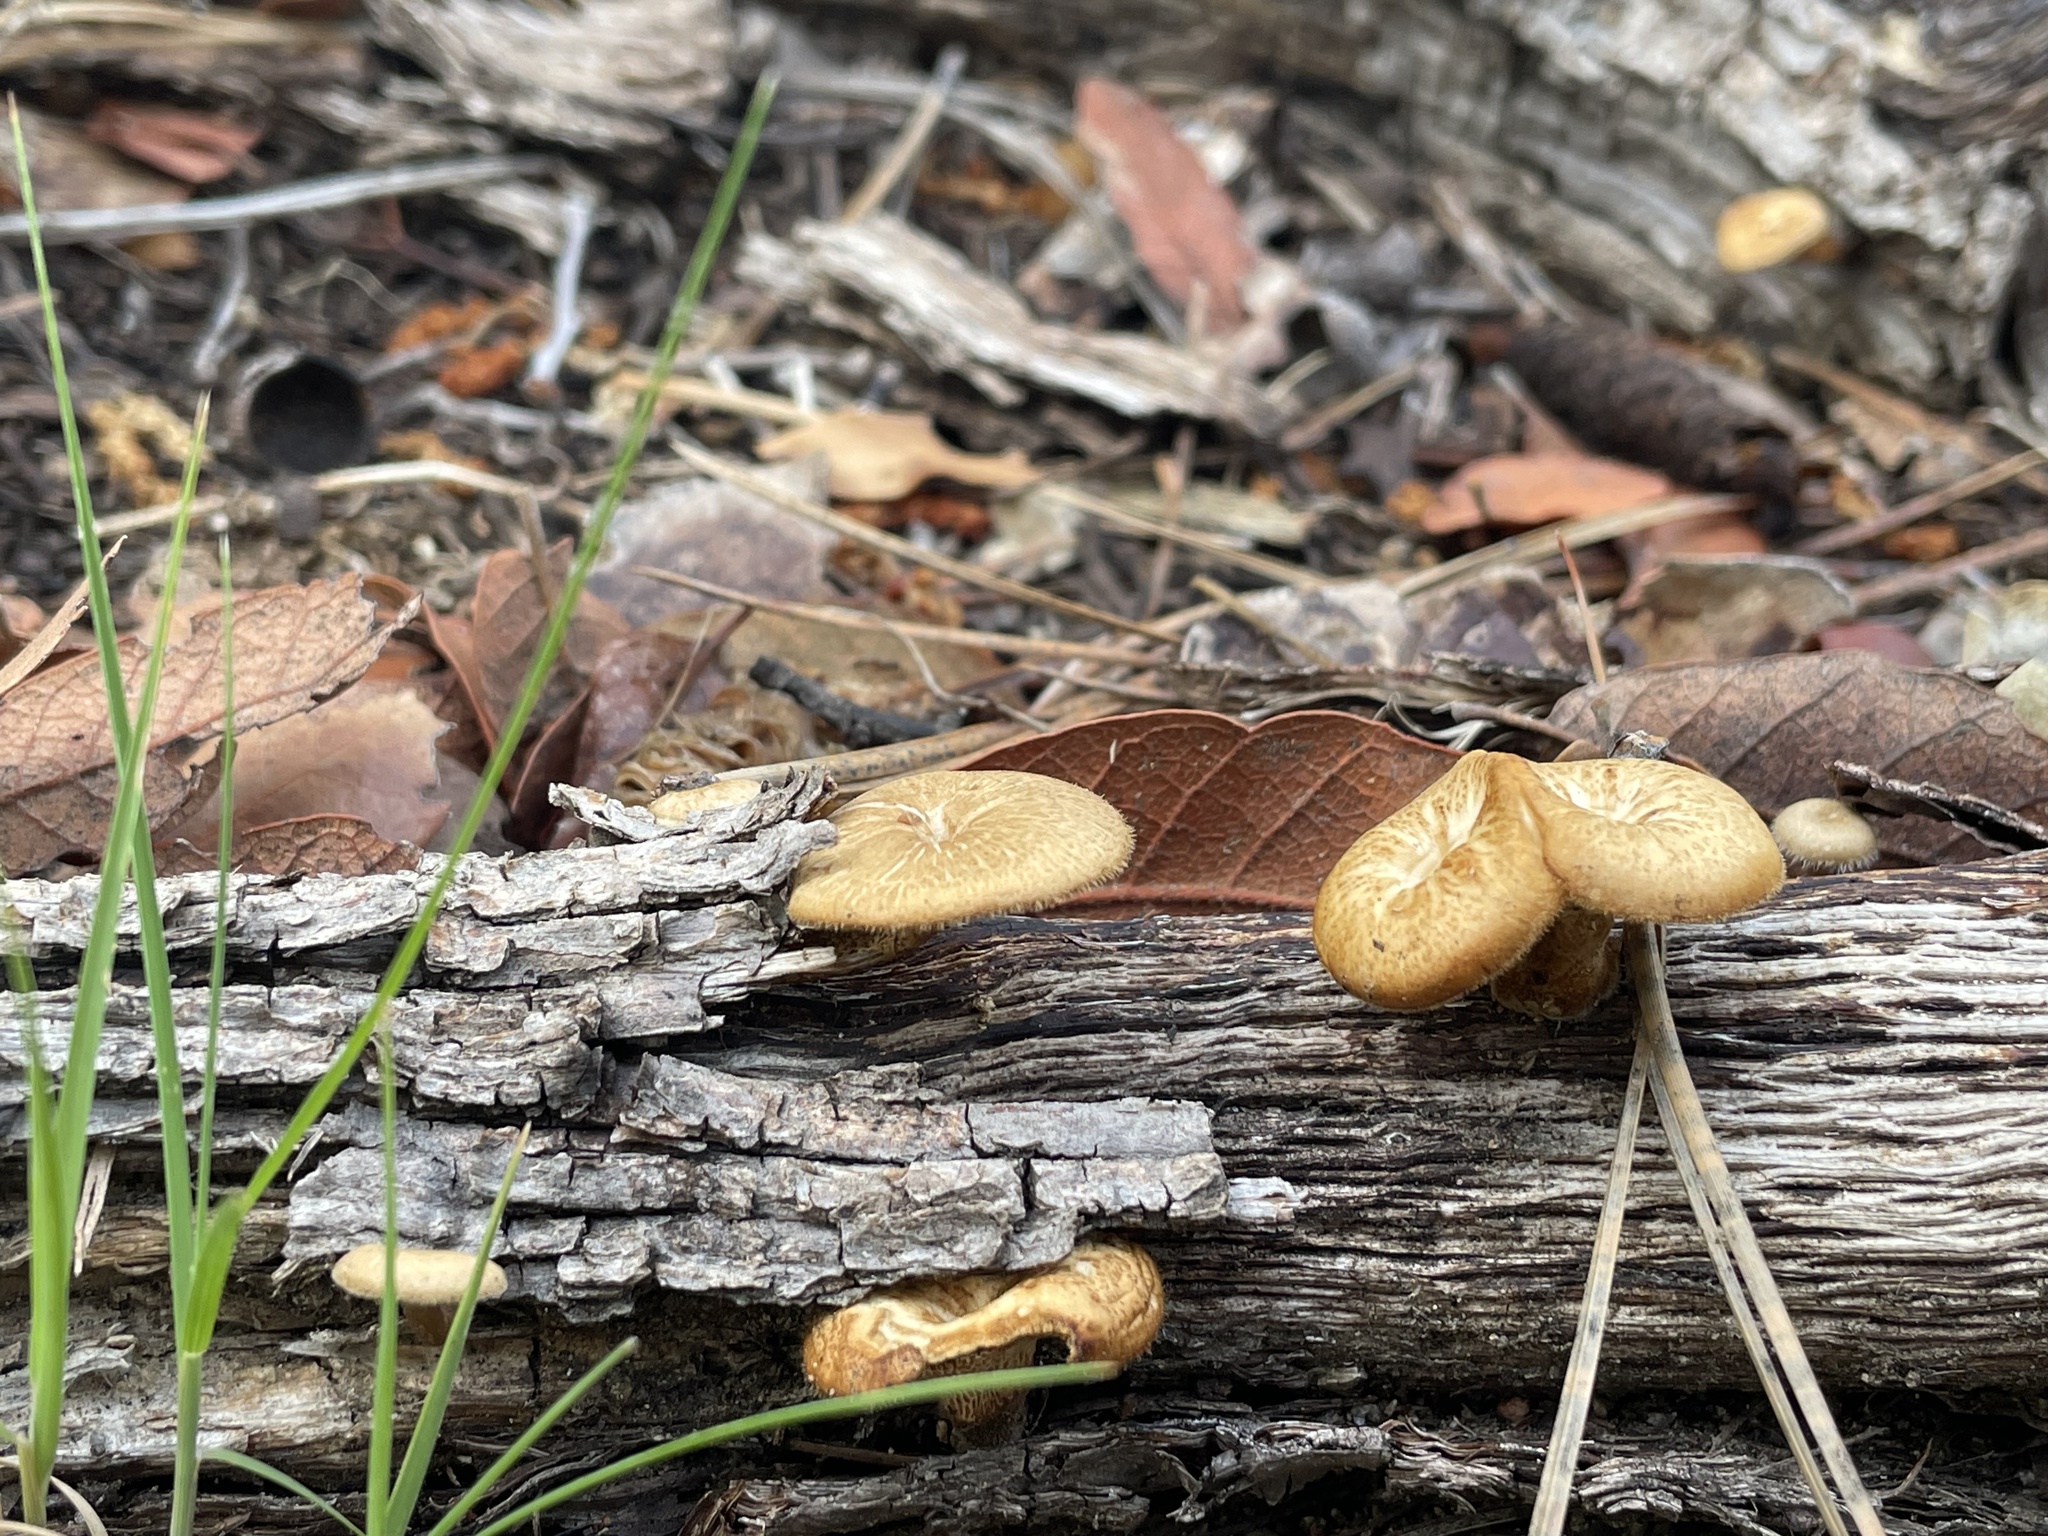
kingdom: Fungi
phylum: Basidiomycota
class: Agaricomycetes
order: Polyporales
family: Polyporaceae
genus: Lentinus
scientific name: Lentinus arcularius
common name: Spring polypore
